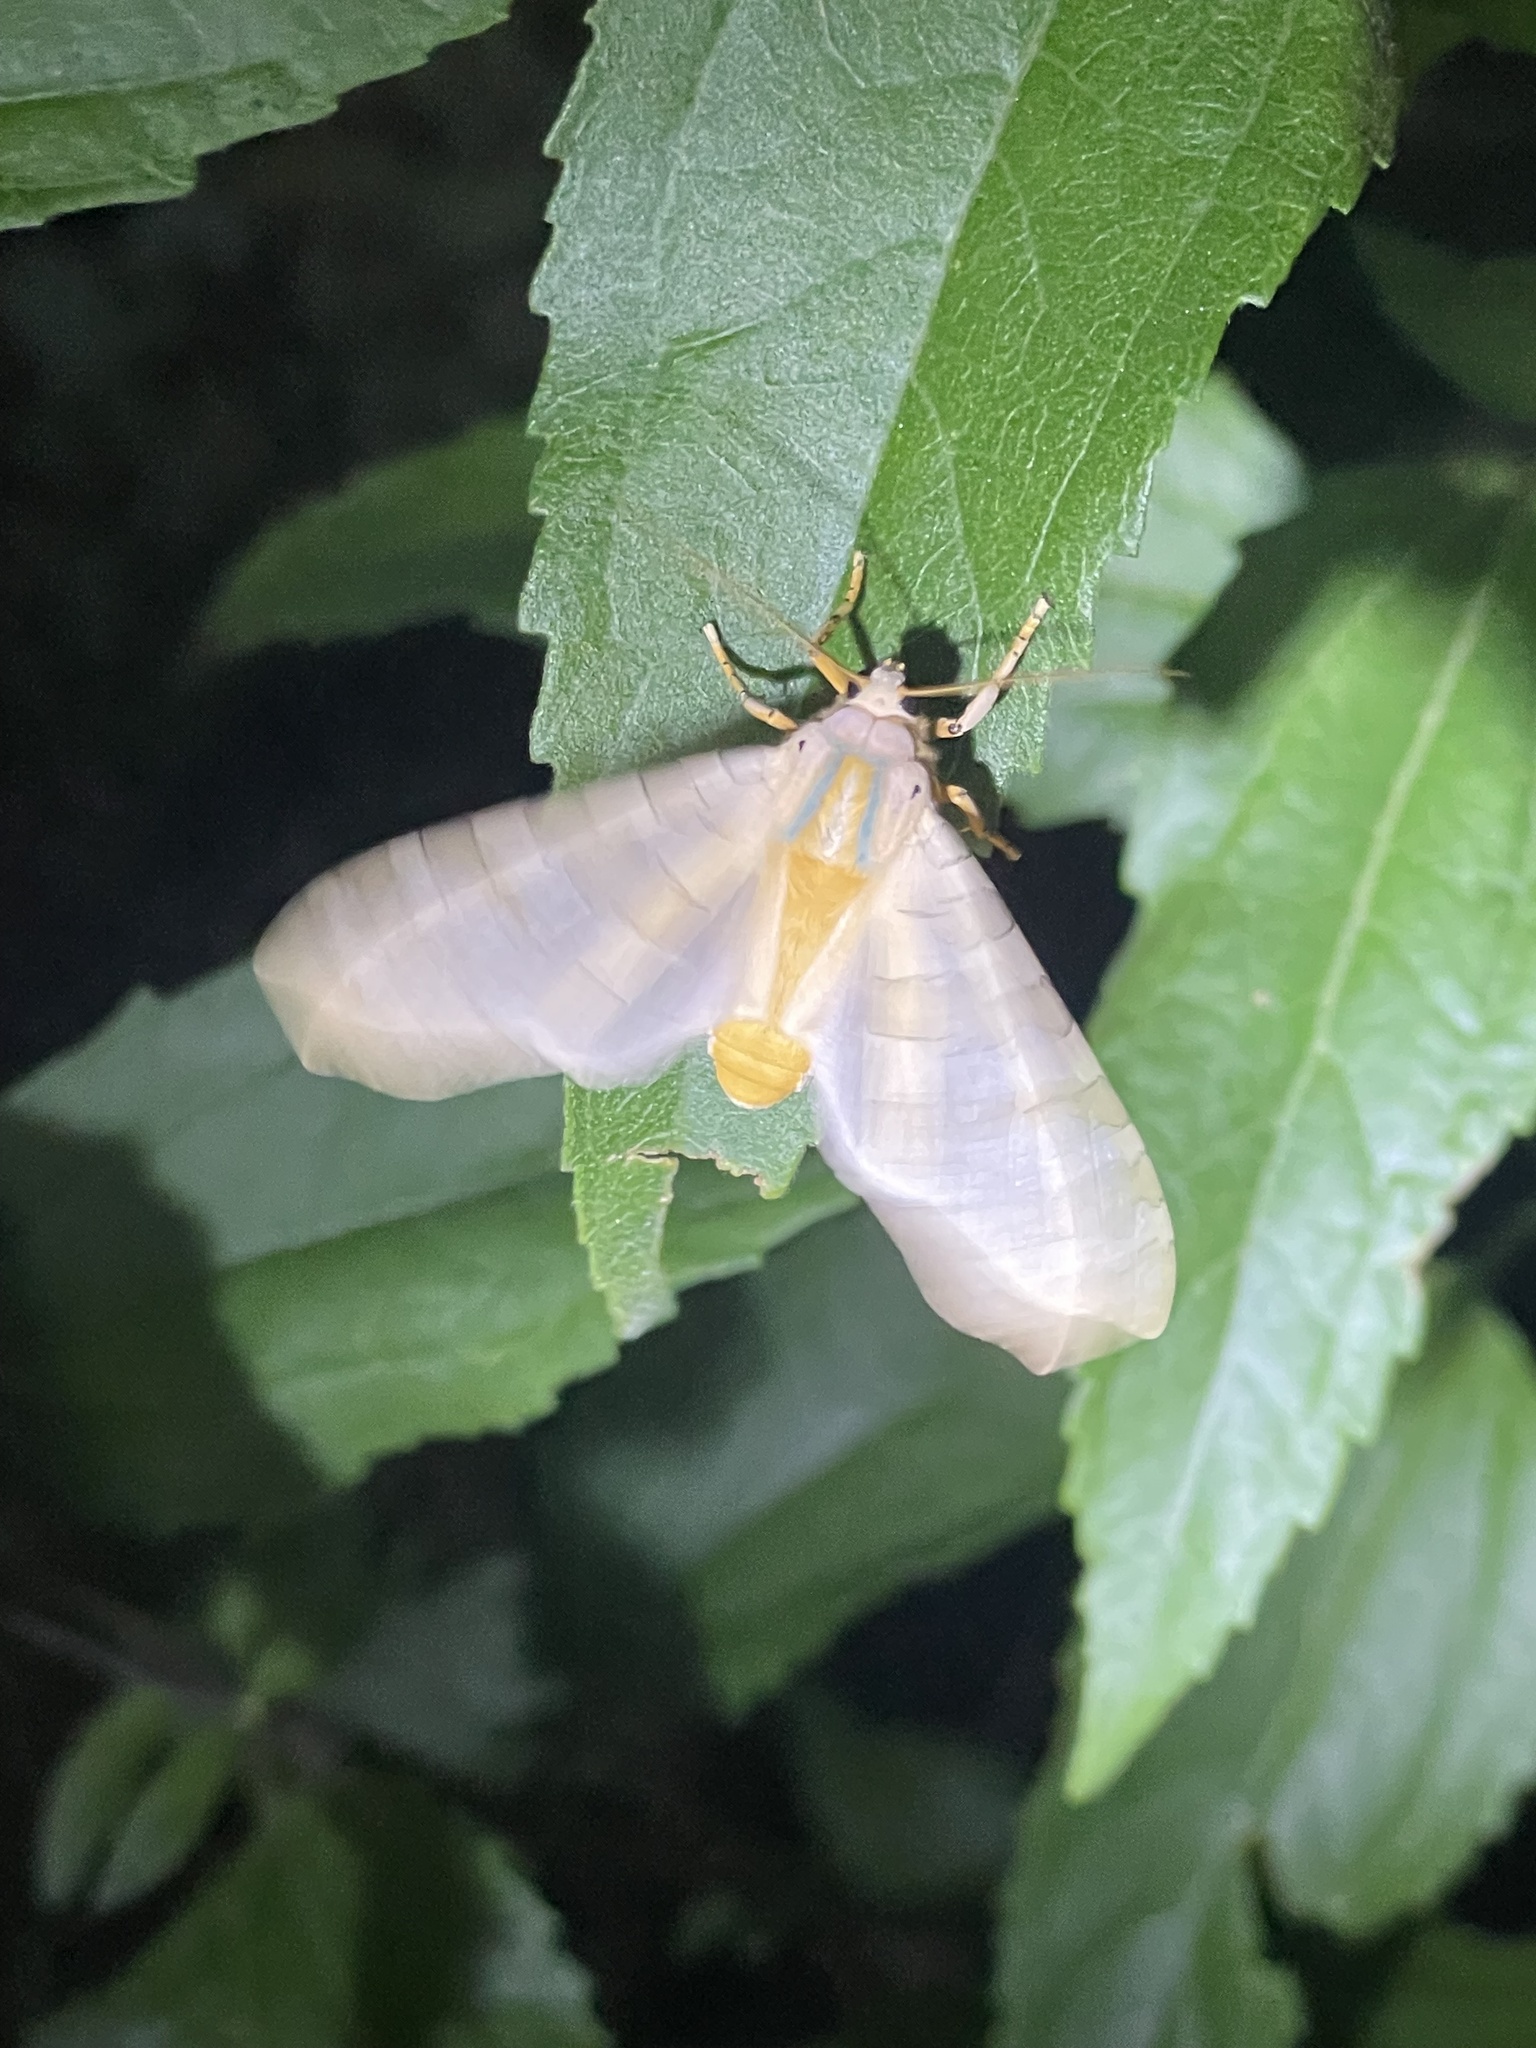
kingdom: Animalia
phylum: Arthropoda
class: Insecta
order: Lepidoptera
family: Erebidae
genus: Halysidota
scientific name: Halysidota
